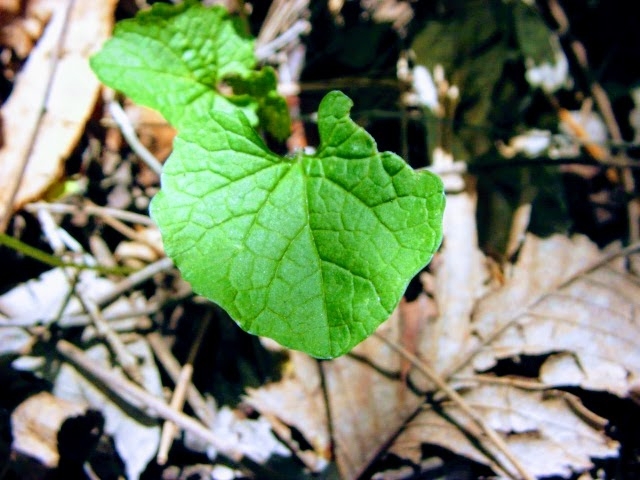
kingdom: Plantae
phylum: Tracheophyta
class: Magnoliopsida
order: Brassicales
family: Brassicaceae
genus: Alliaria
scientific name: Alliaria petiolata
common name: Garlic mustard
